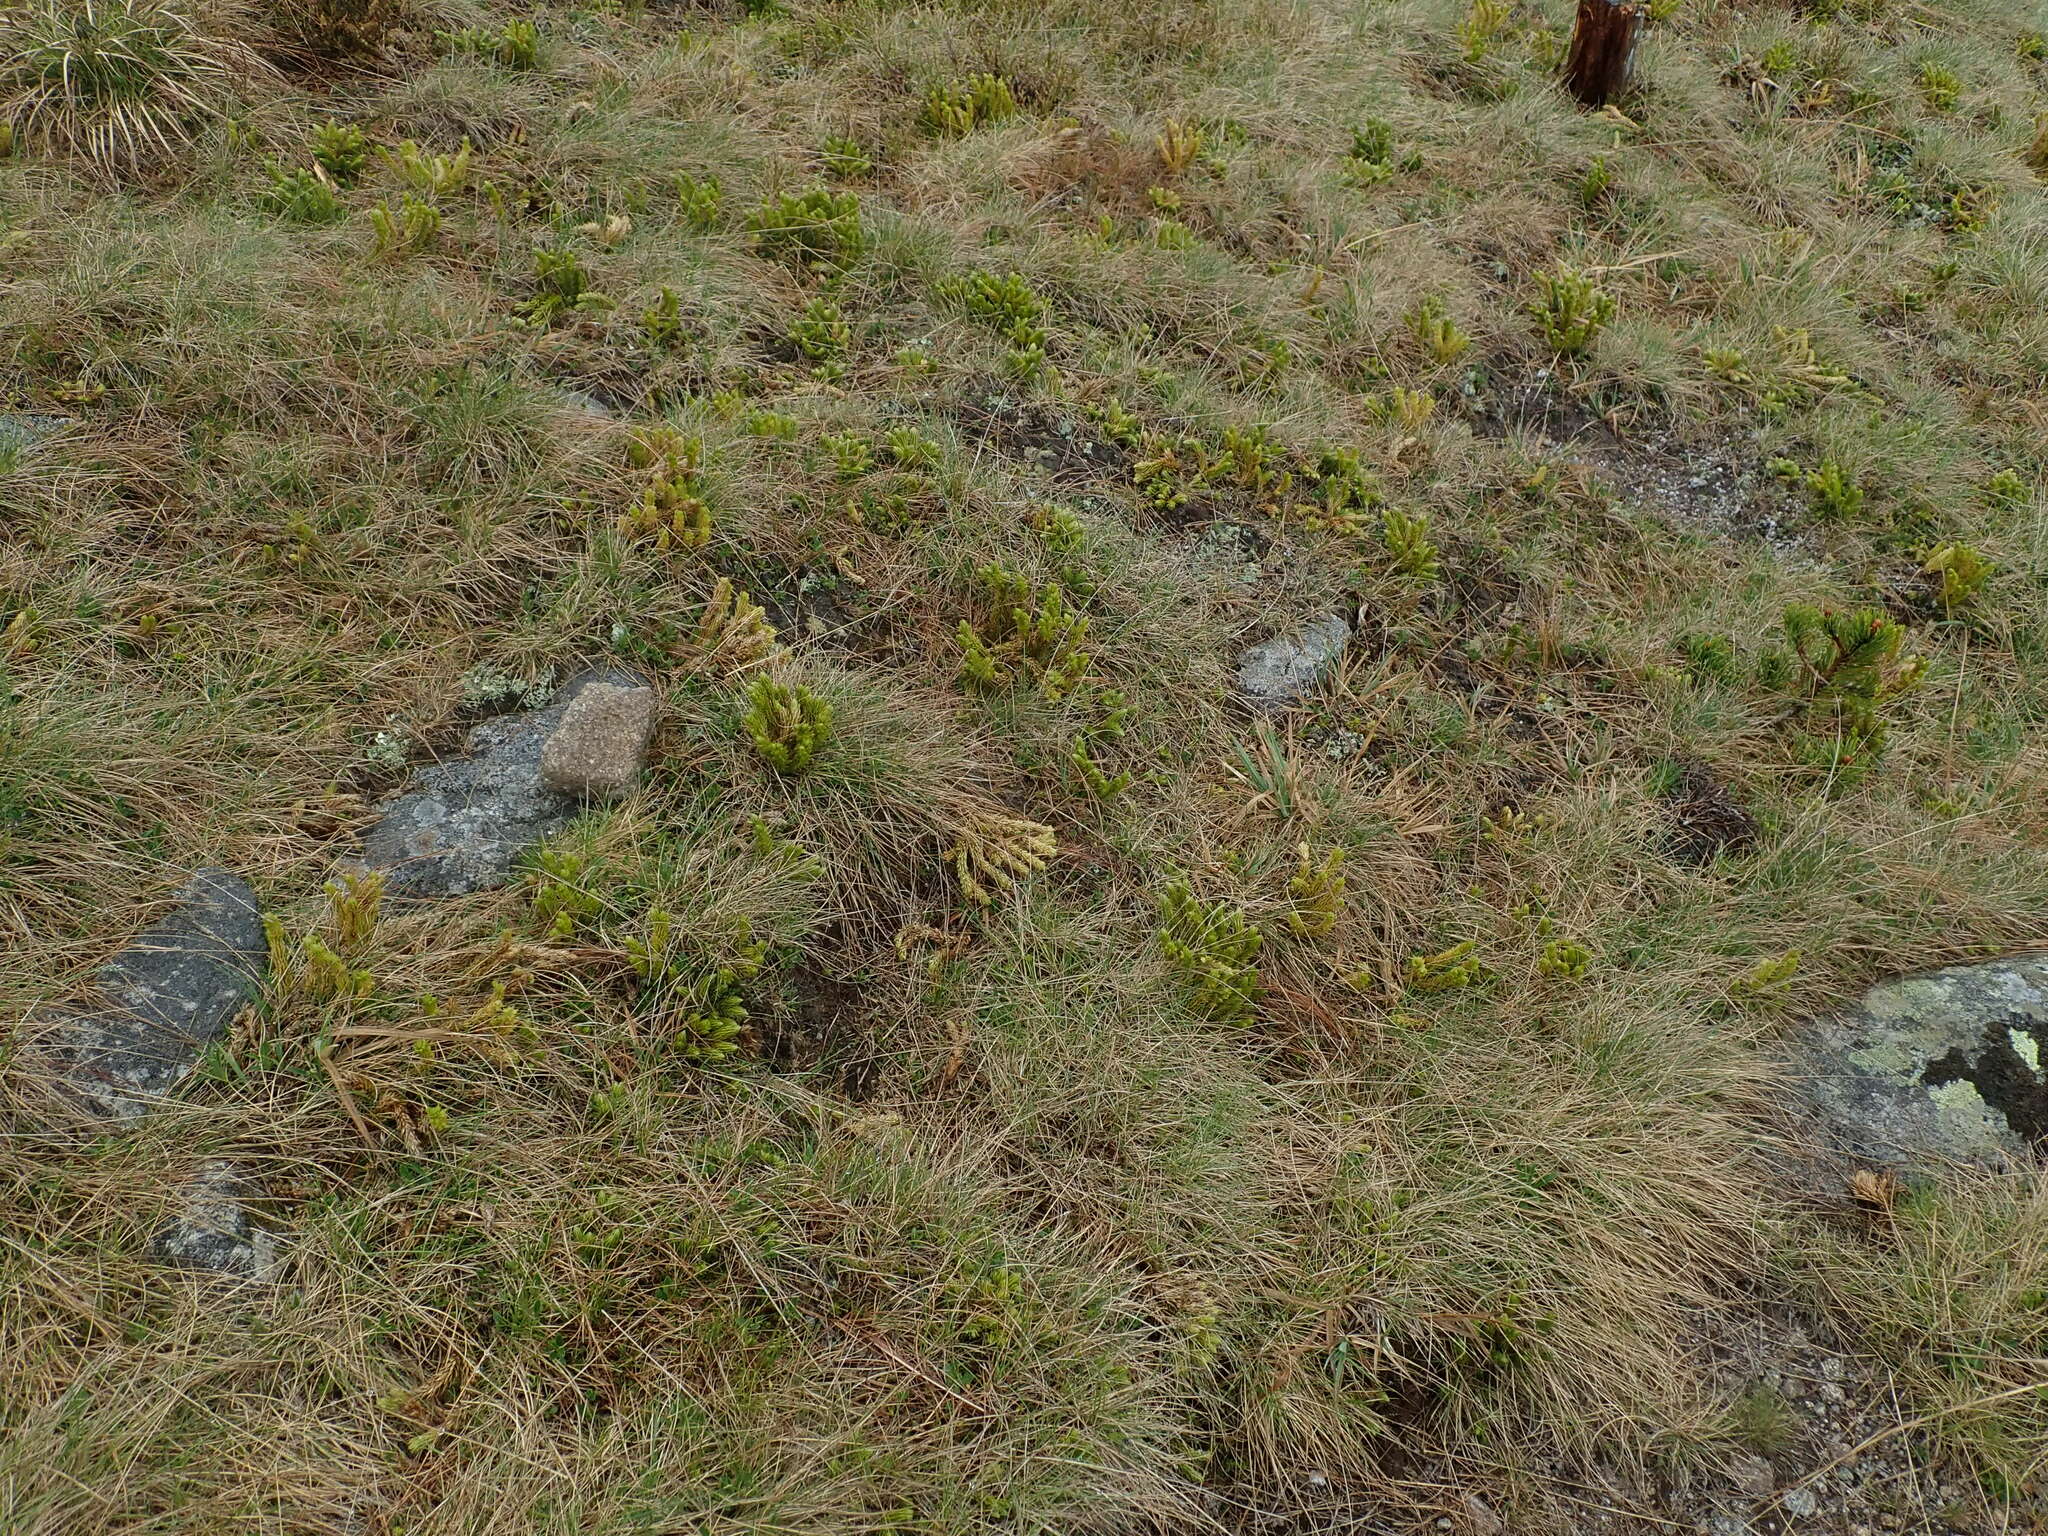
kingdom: Plantae
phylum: Tracheophyta
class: Lycopodiopsida
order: Lycopodiales
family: Lycopodiaceae
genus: Huperzia
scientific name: Huperzia selago
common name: Northern firmoss
